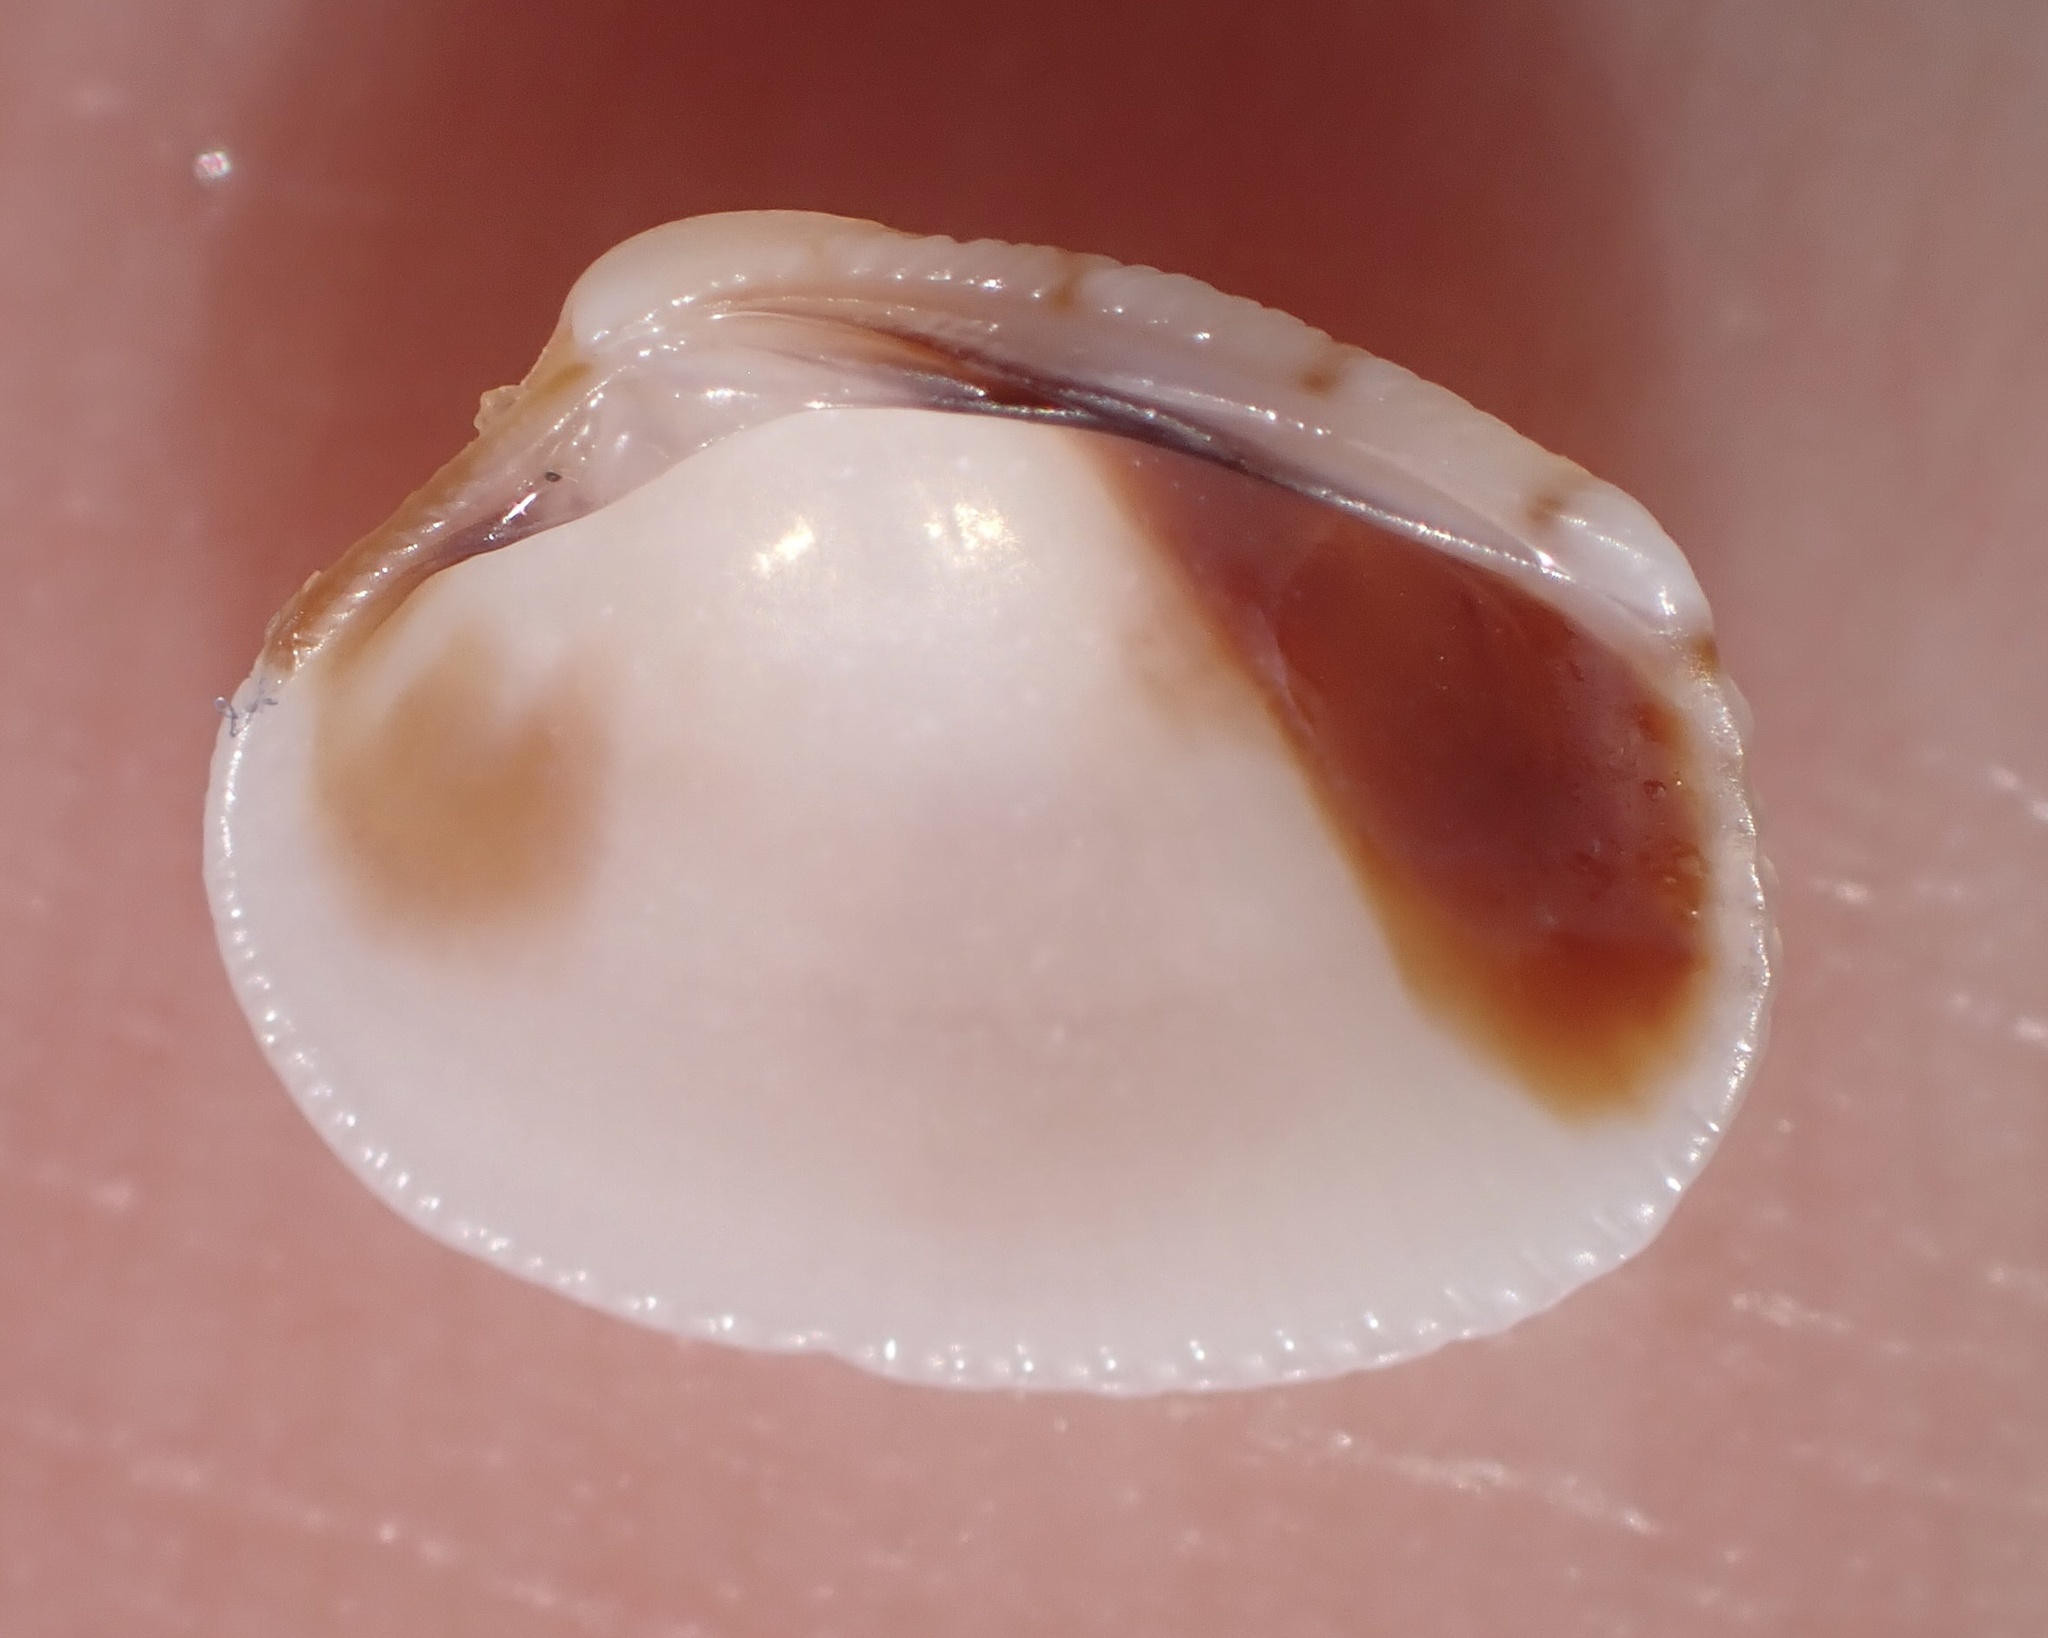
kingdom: Animalia
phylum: Mollusca
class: Bivalvia
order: Venerida
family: Veneridae
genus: Chioneryx
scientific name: Chioneryx grus
